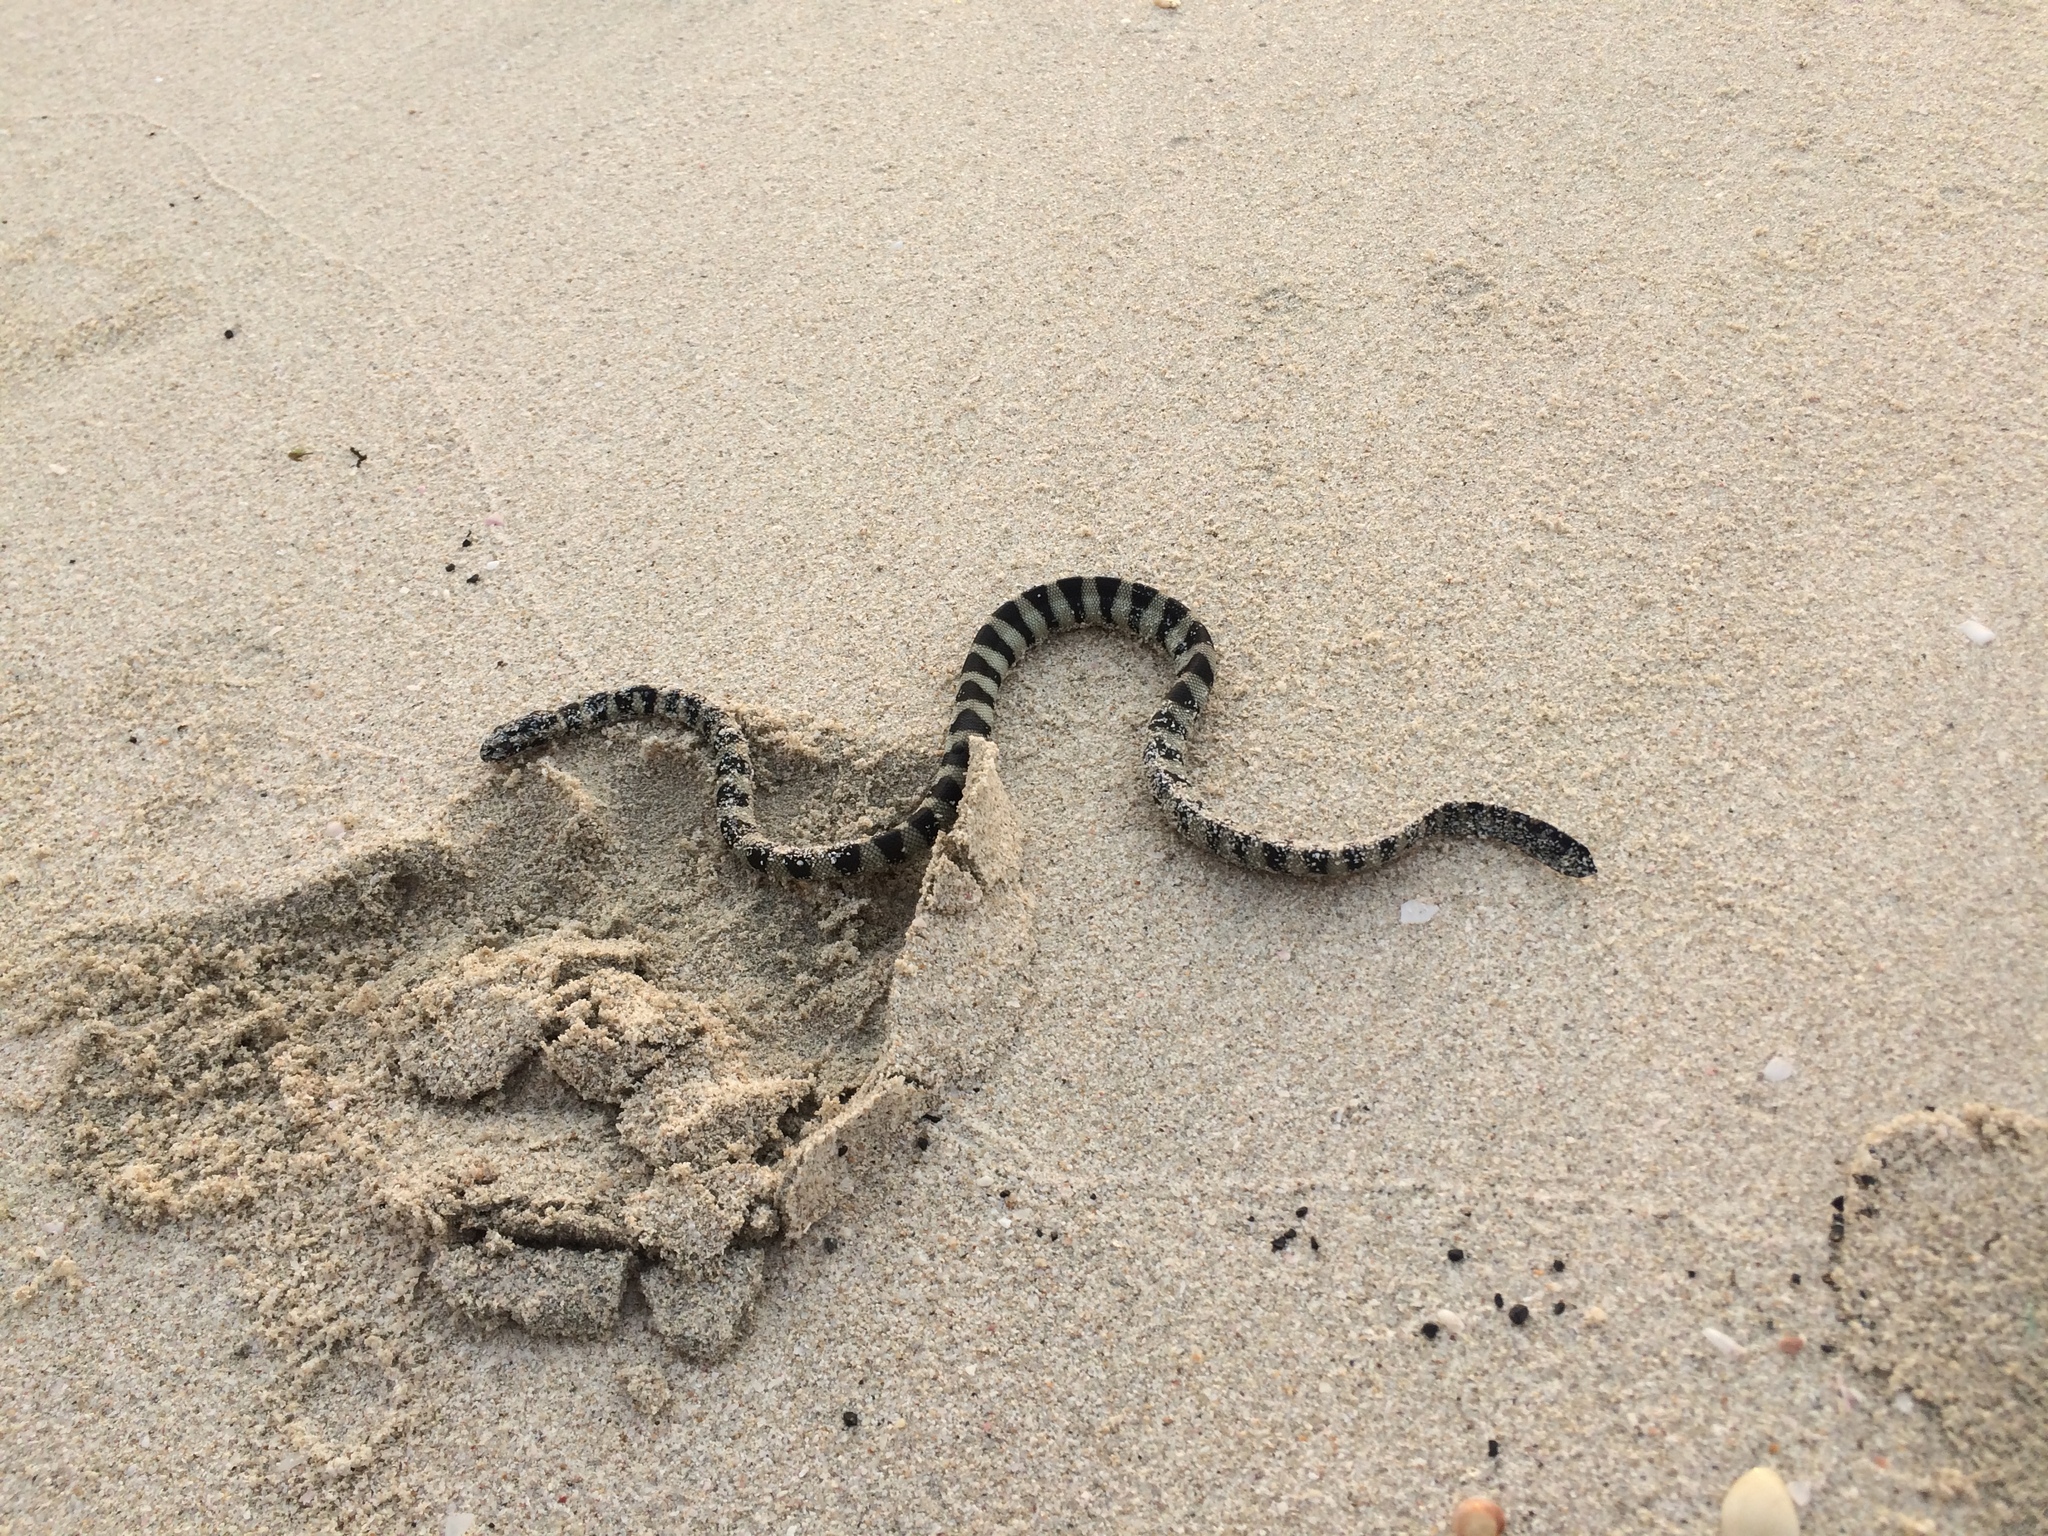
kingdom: Animalia
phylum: Chordata
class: Squamata
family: Elapidae
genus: Hydrophis
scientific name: Hydrophis lapemoides
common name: Persian gulf sea snake
